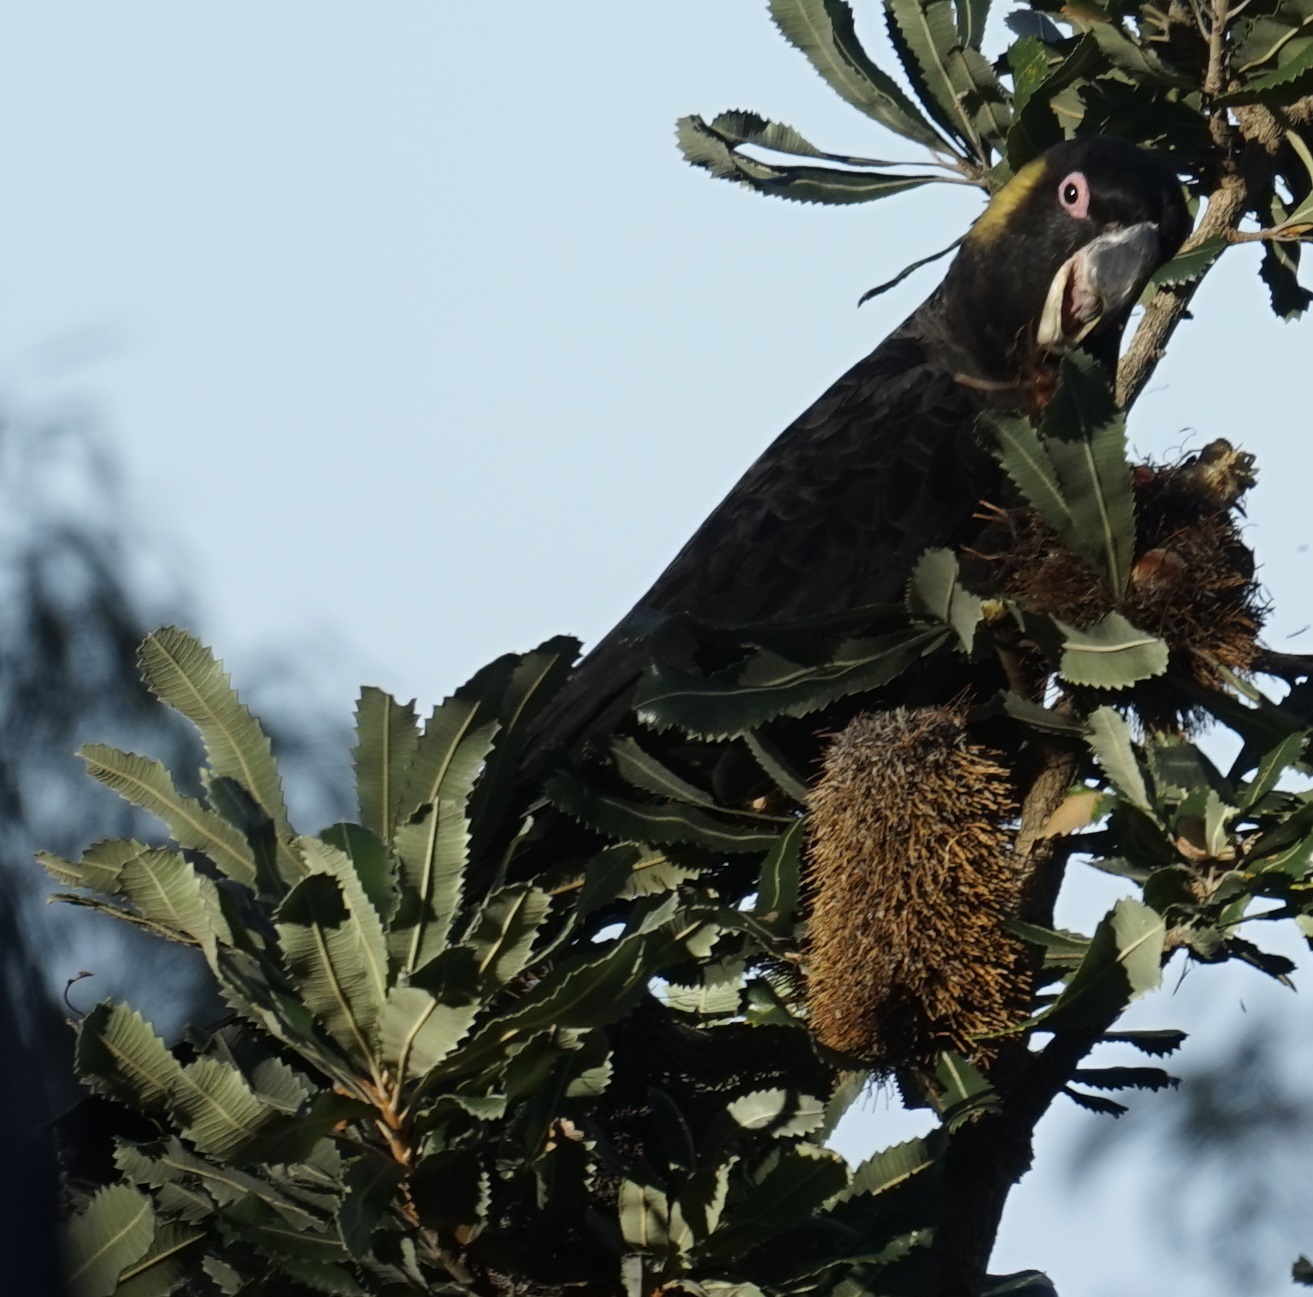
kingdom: Animalia
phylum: Chordata
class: Aves
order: Psittaciformes
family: Cacatuidae
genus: Zanda
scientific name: Zanda funerea
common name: Yellow-tailed black-cockatoo
